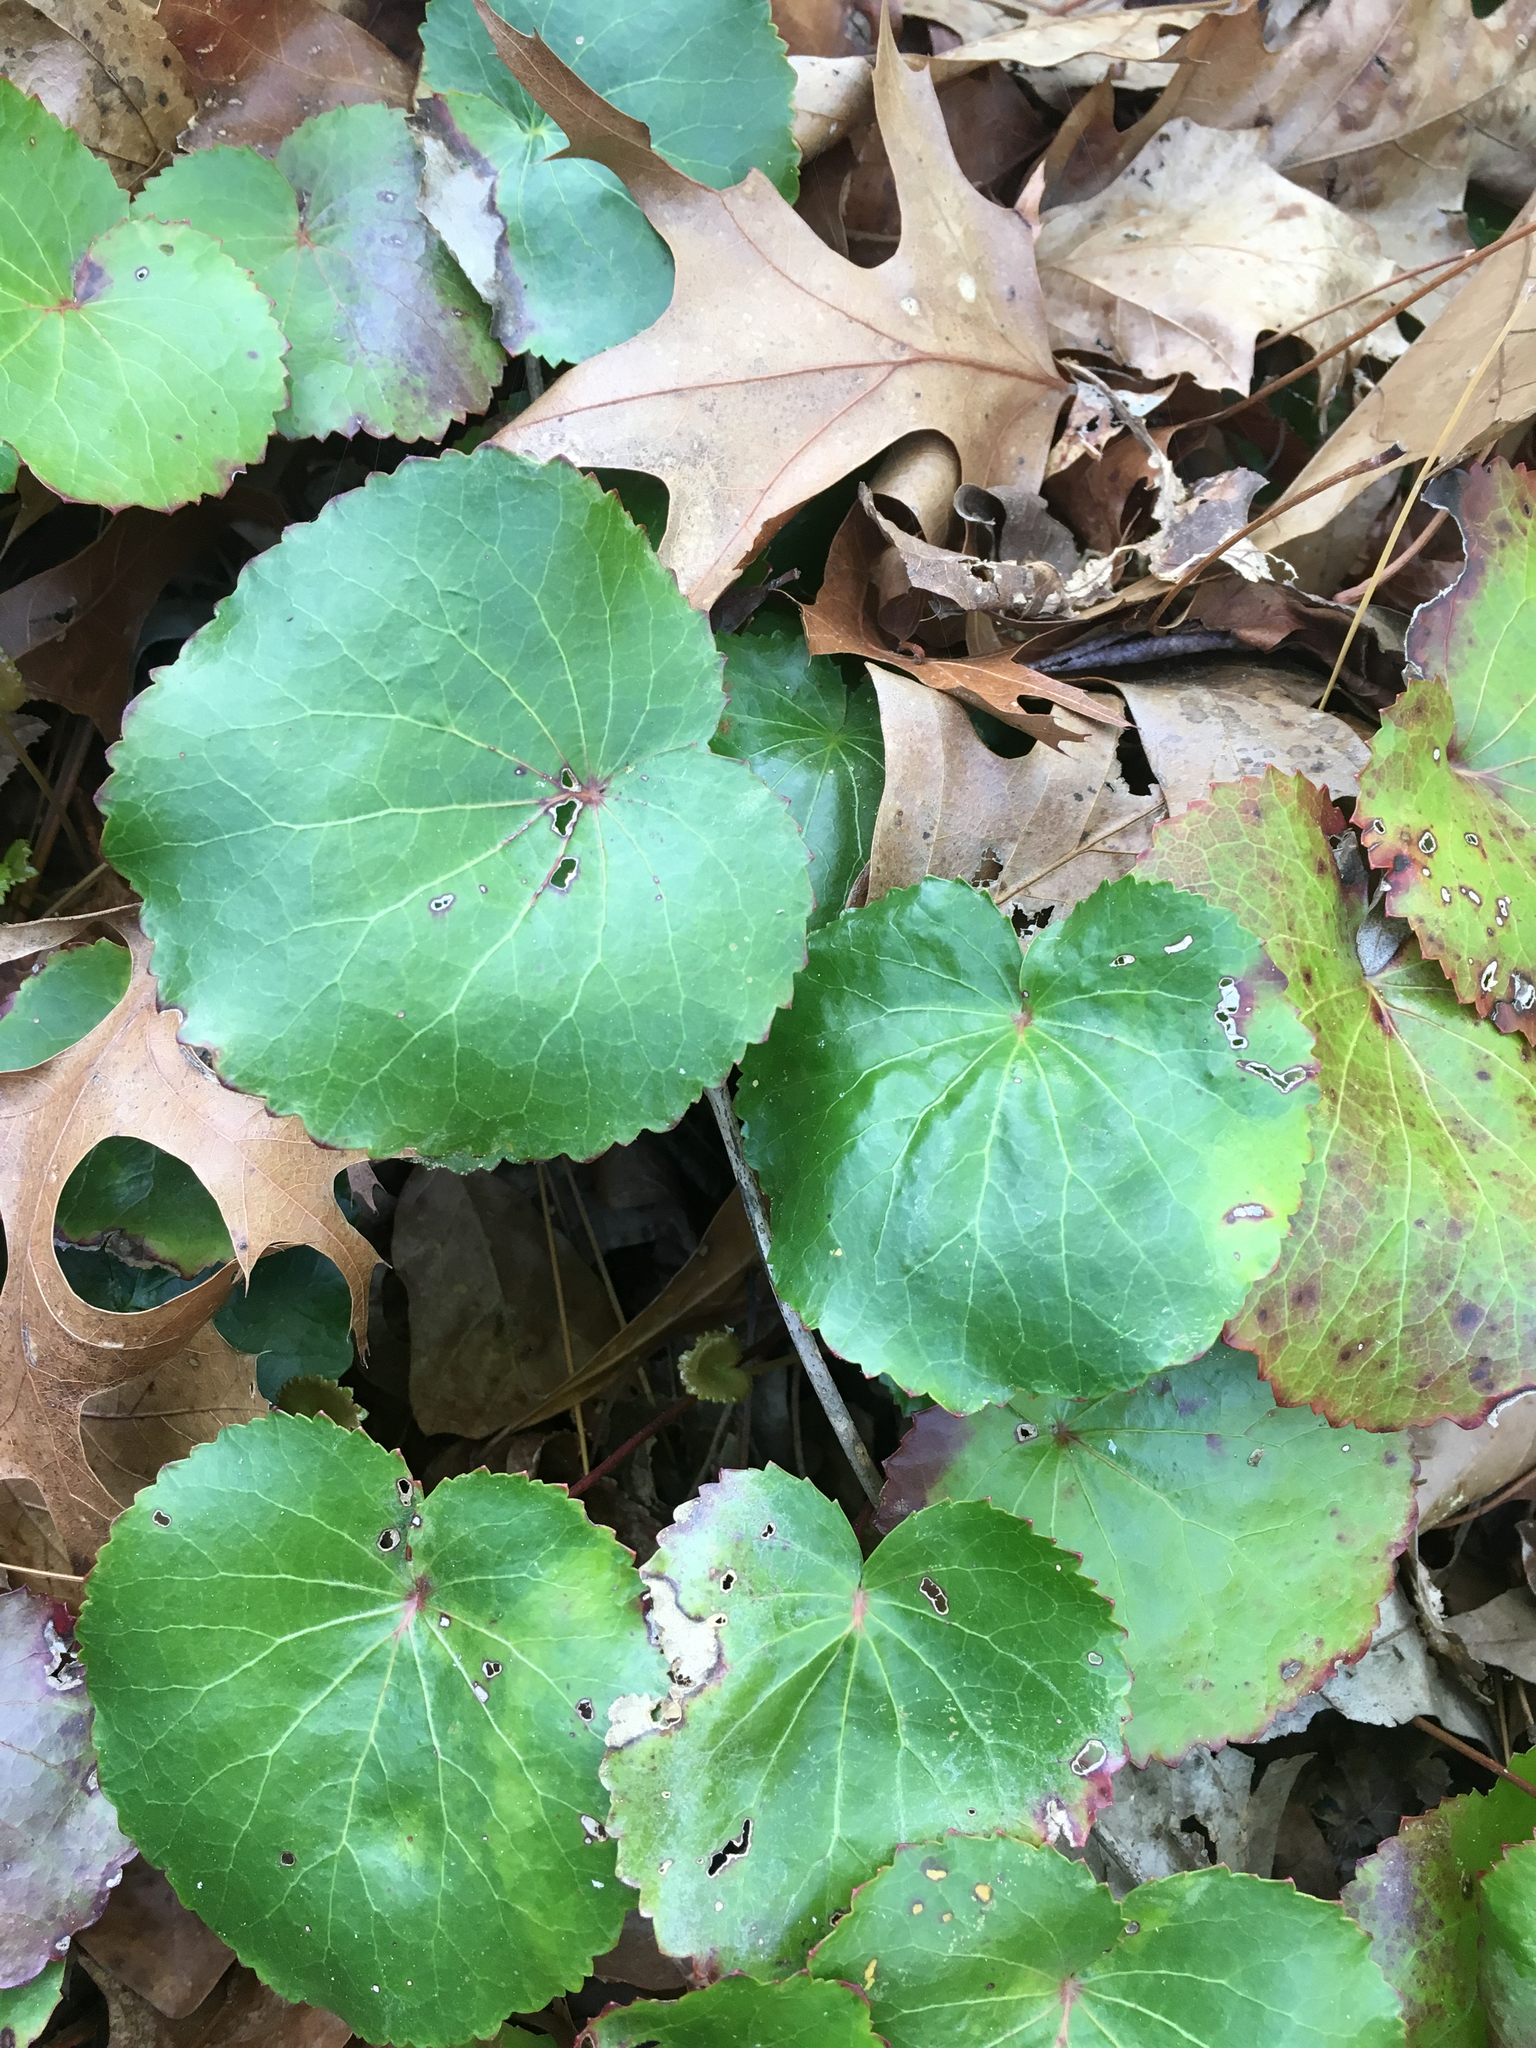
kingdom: Plantae
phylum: Tracheophyta
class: Magnoliopsida
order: Ericales
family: Diapensiaceae
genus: Galax
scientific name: Galax urceolata
